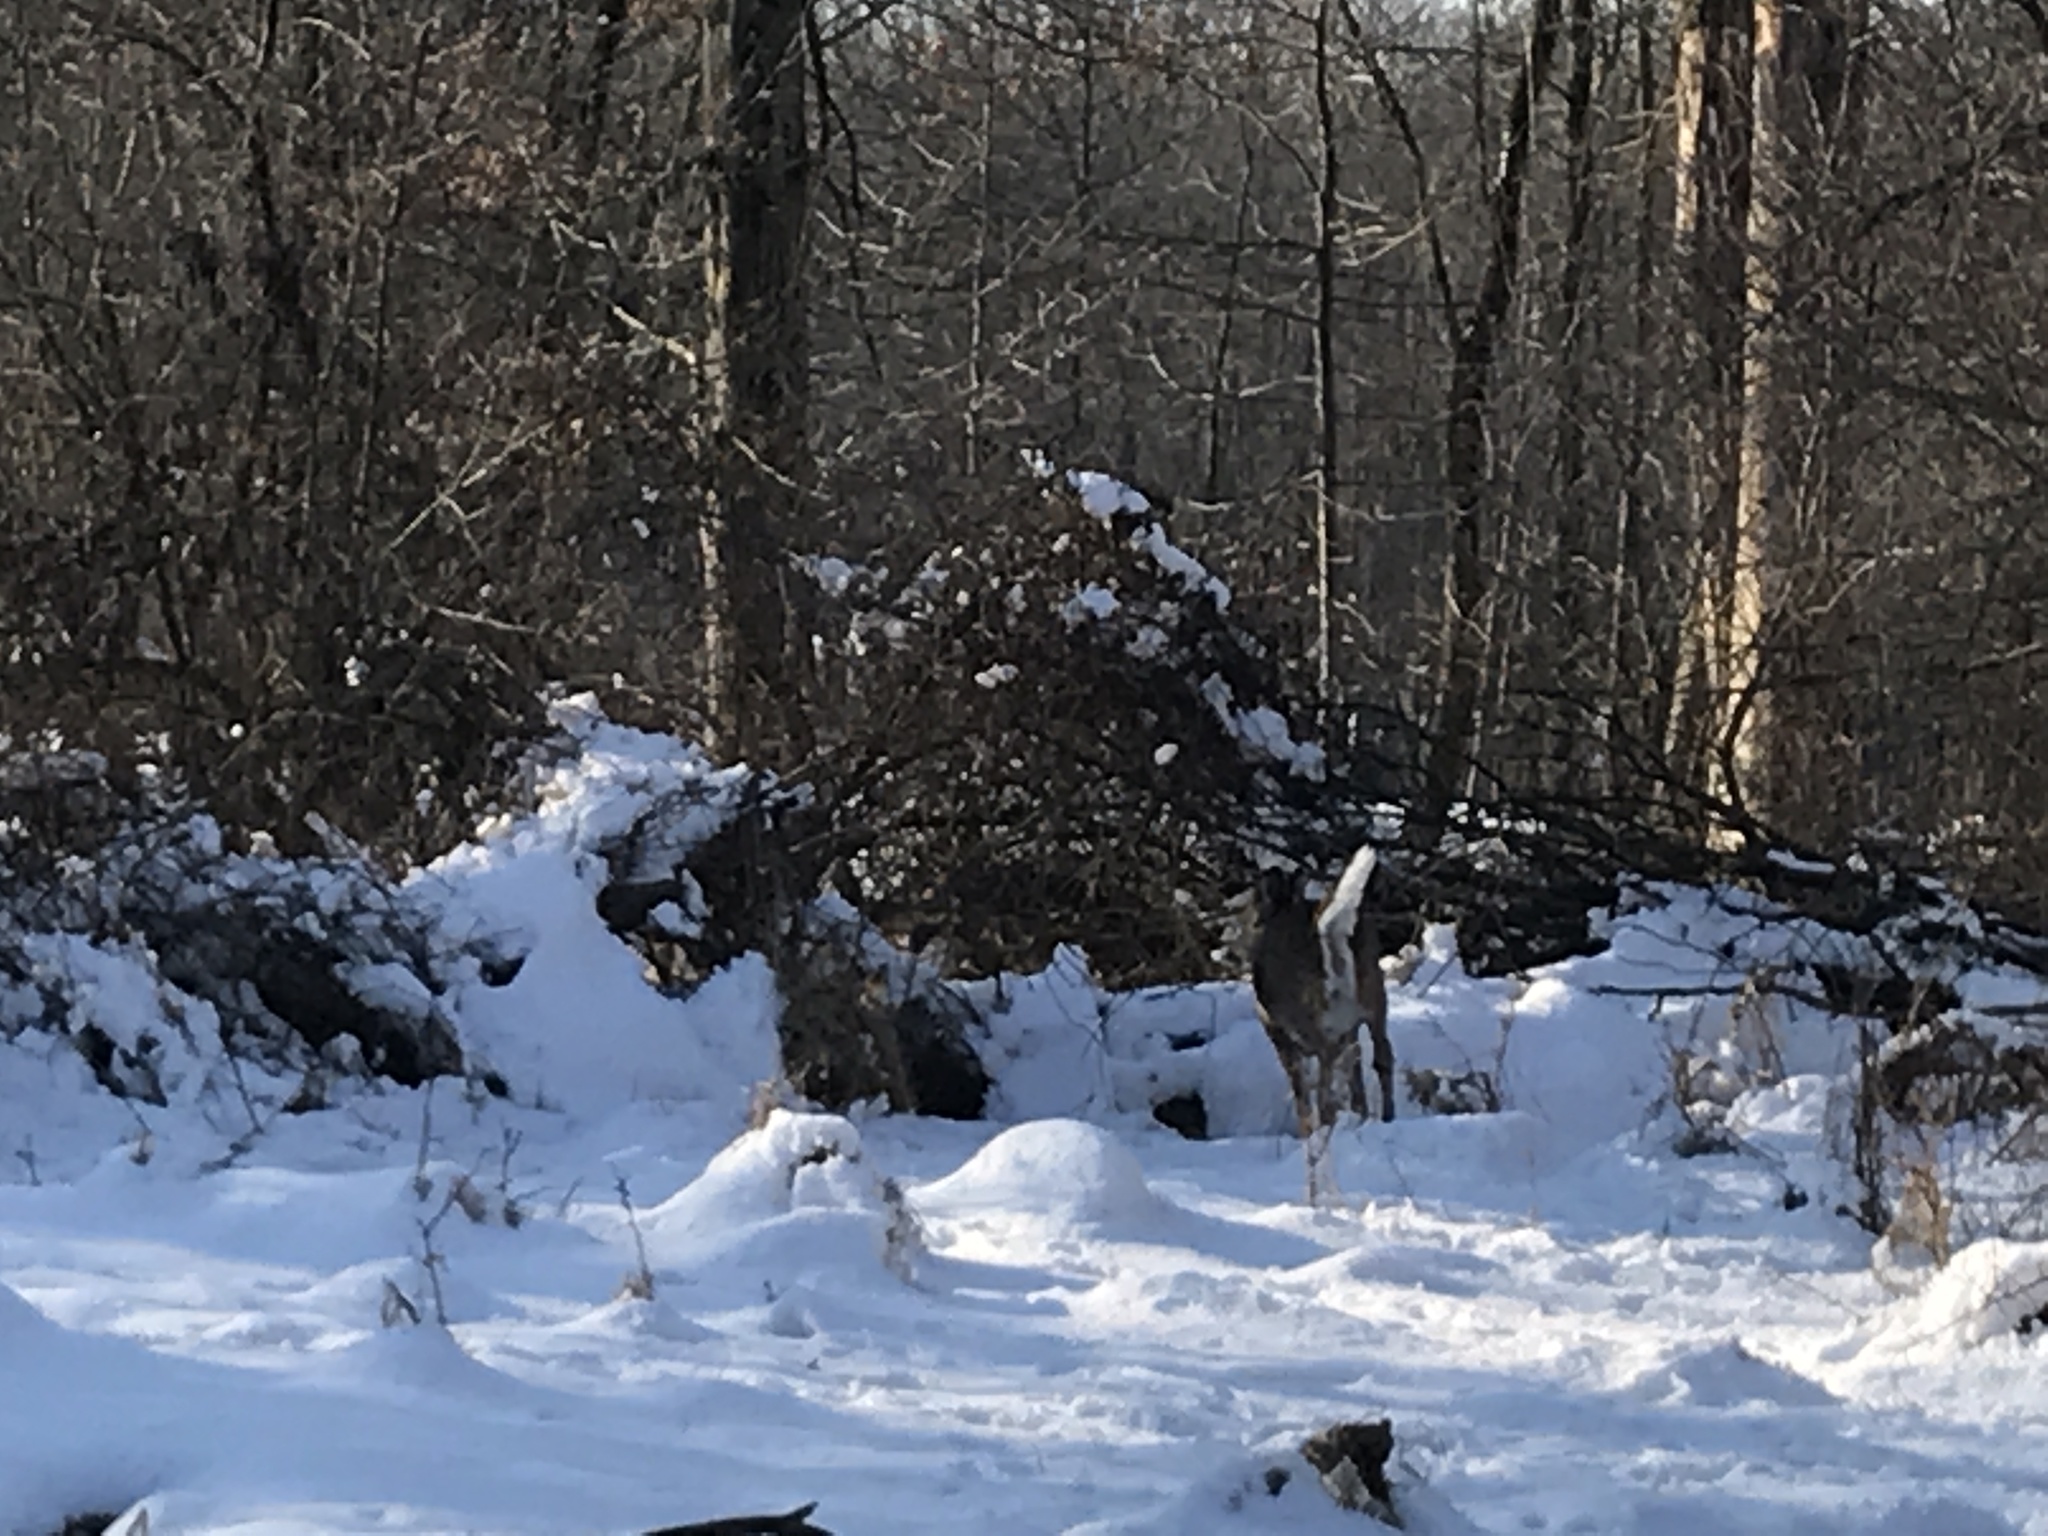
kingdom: Animalia
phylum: Chordata
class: Mammalia
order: Artiodactyla
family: Cervidae
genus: Odocoileus
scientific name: Odocoileus virginianus
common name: White-tailed deer
